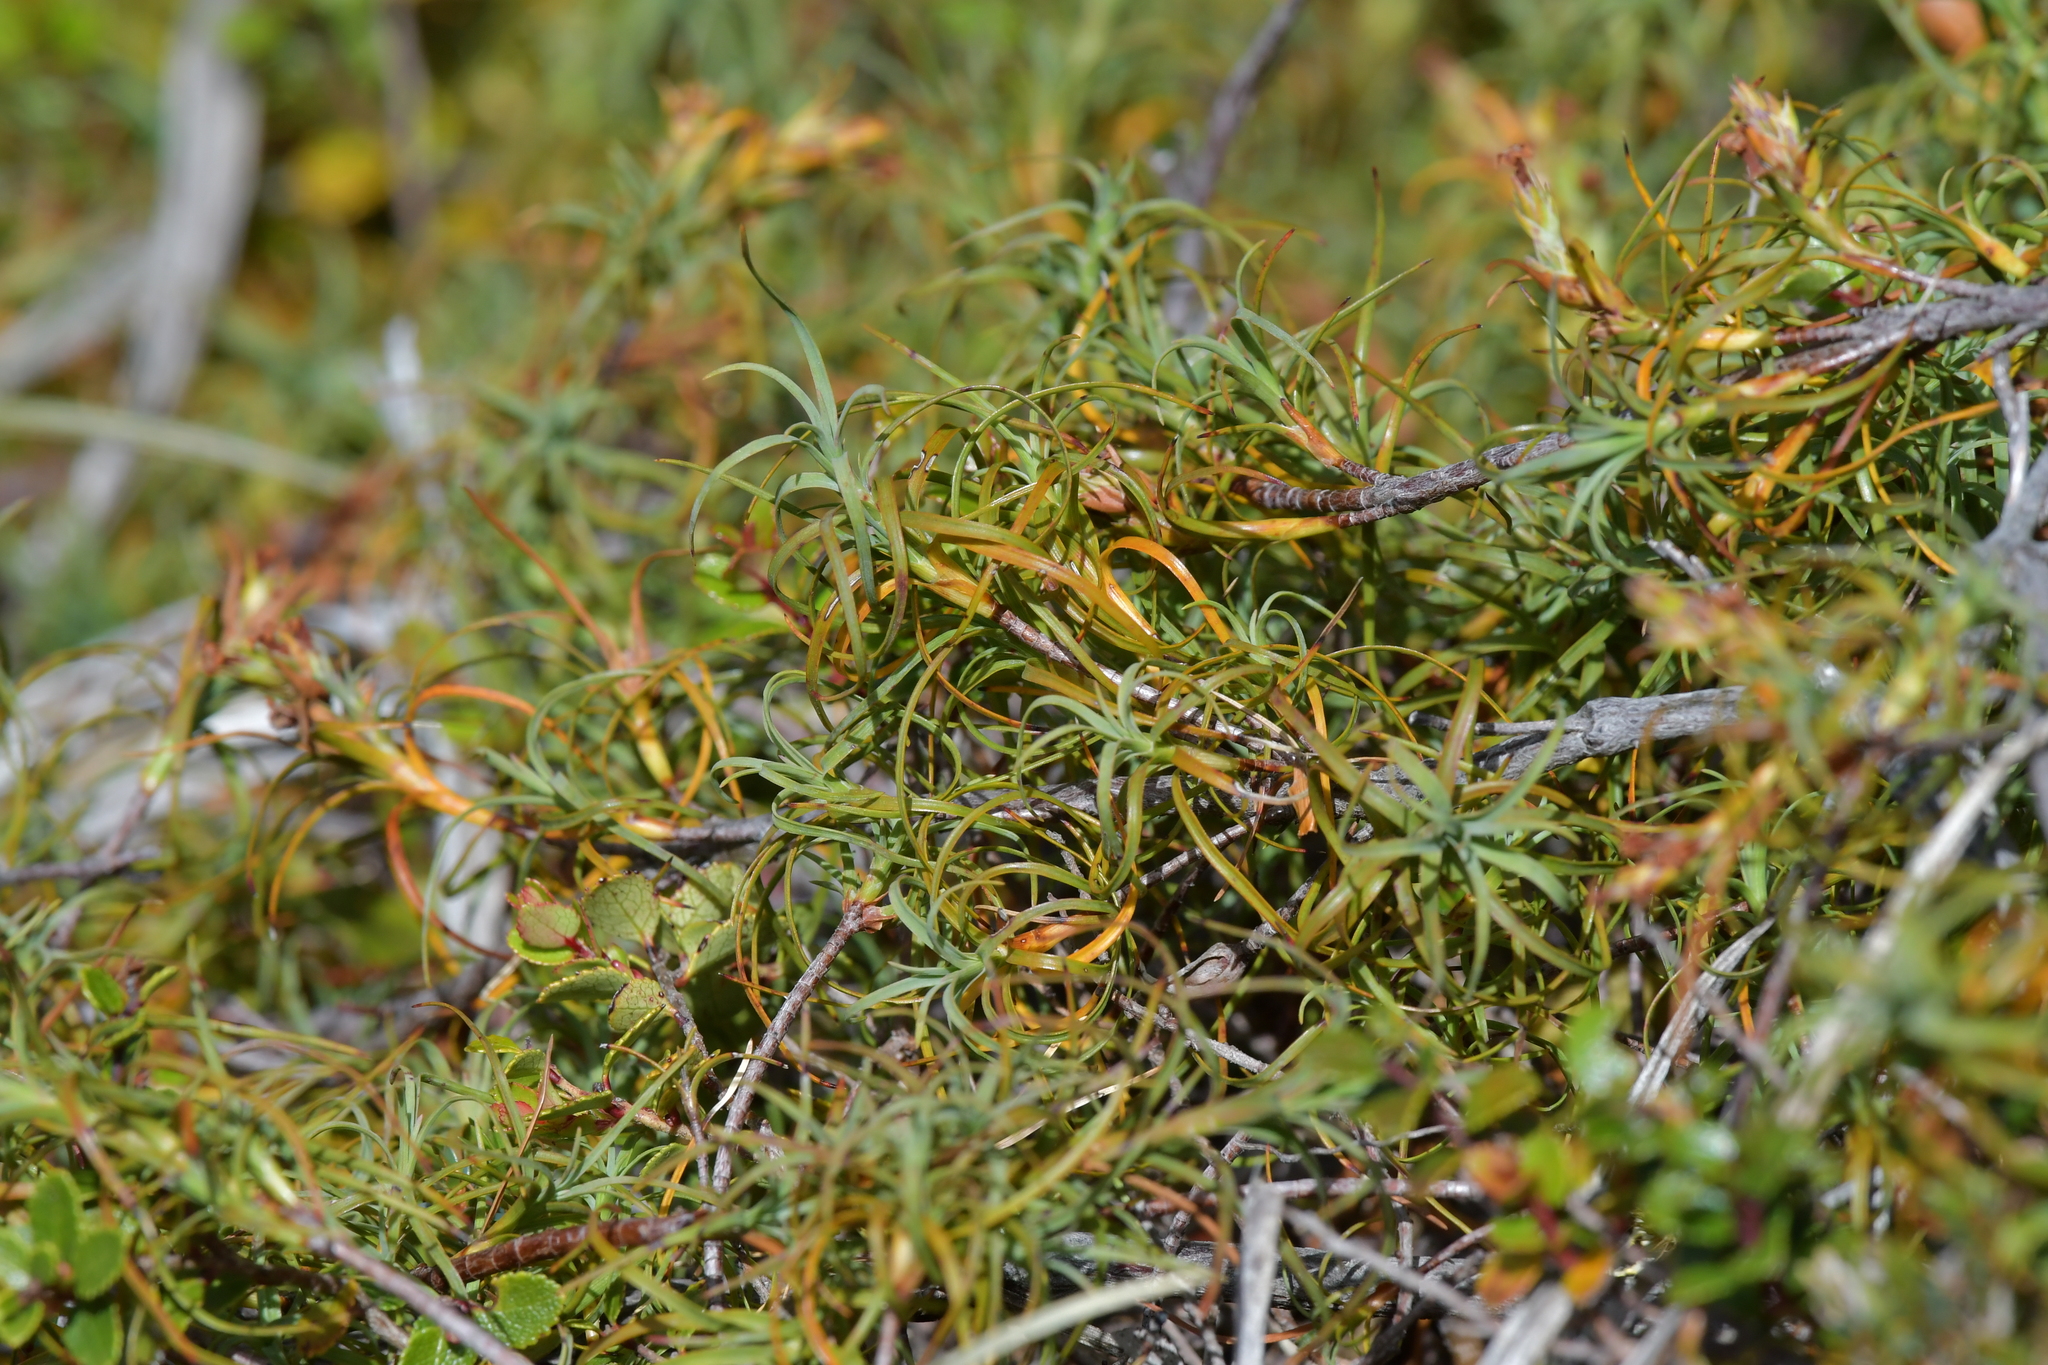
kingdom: Plantae
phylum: Tracheophyta
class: Magnoliopsida
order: Ericales
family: Ericaceae
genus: Dracophyllum
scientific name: Dracophyllum recurvum
